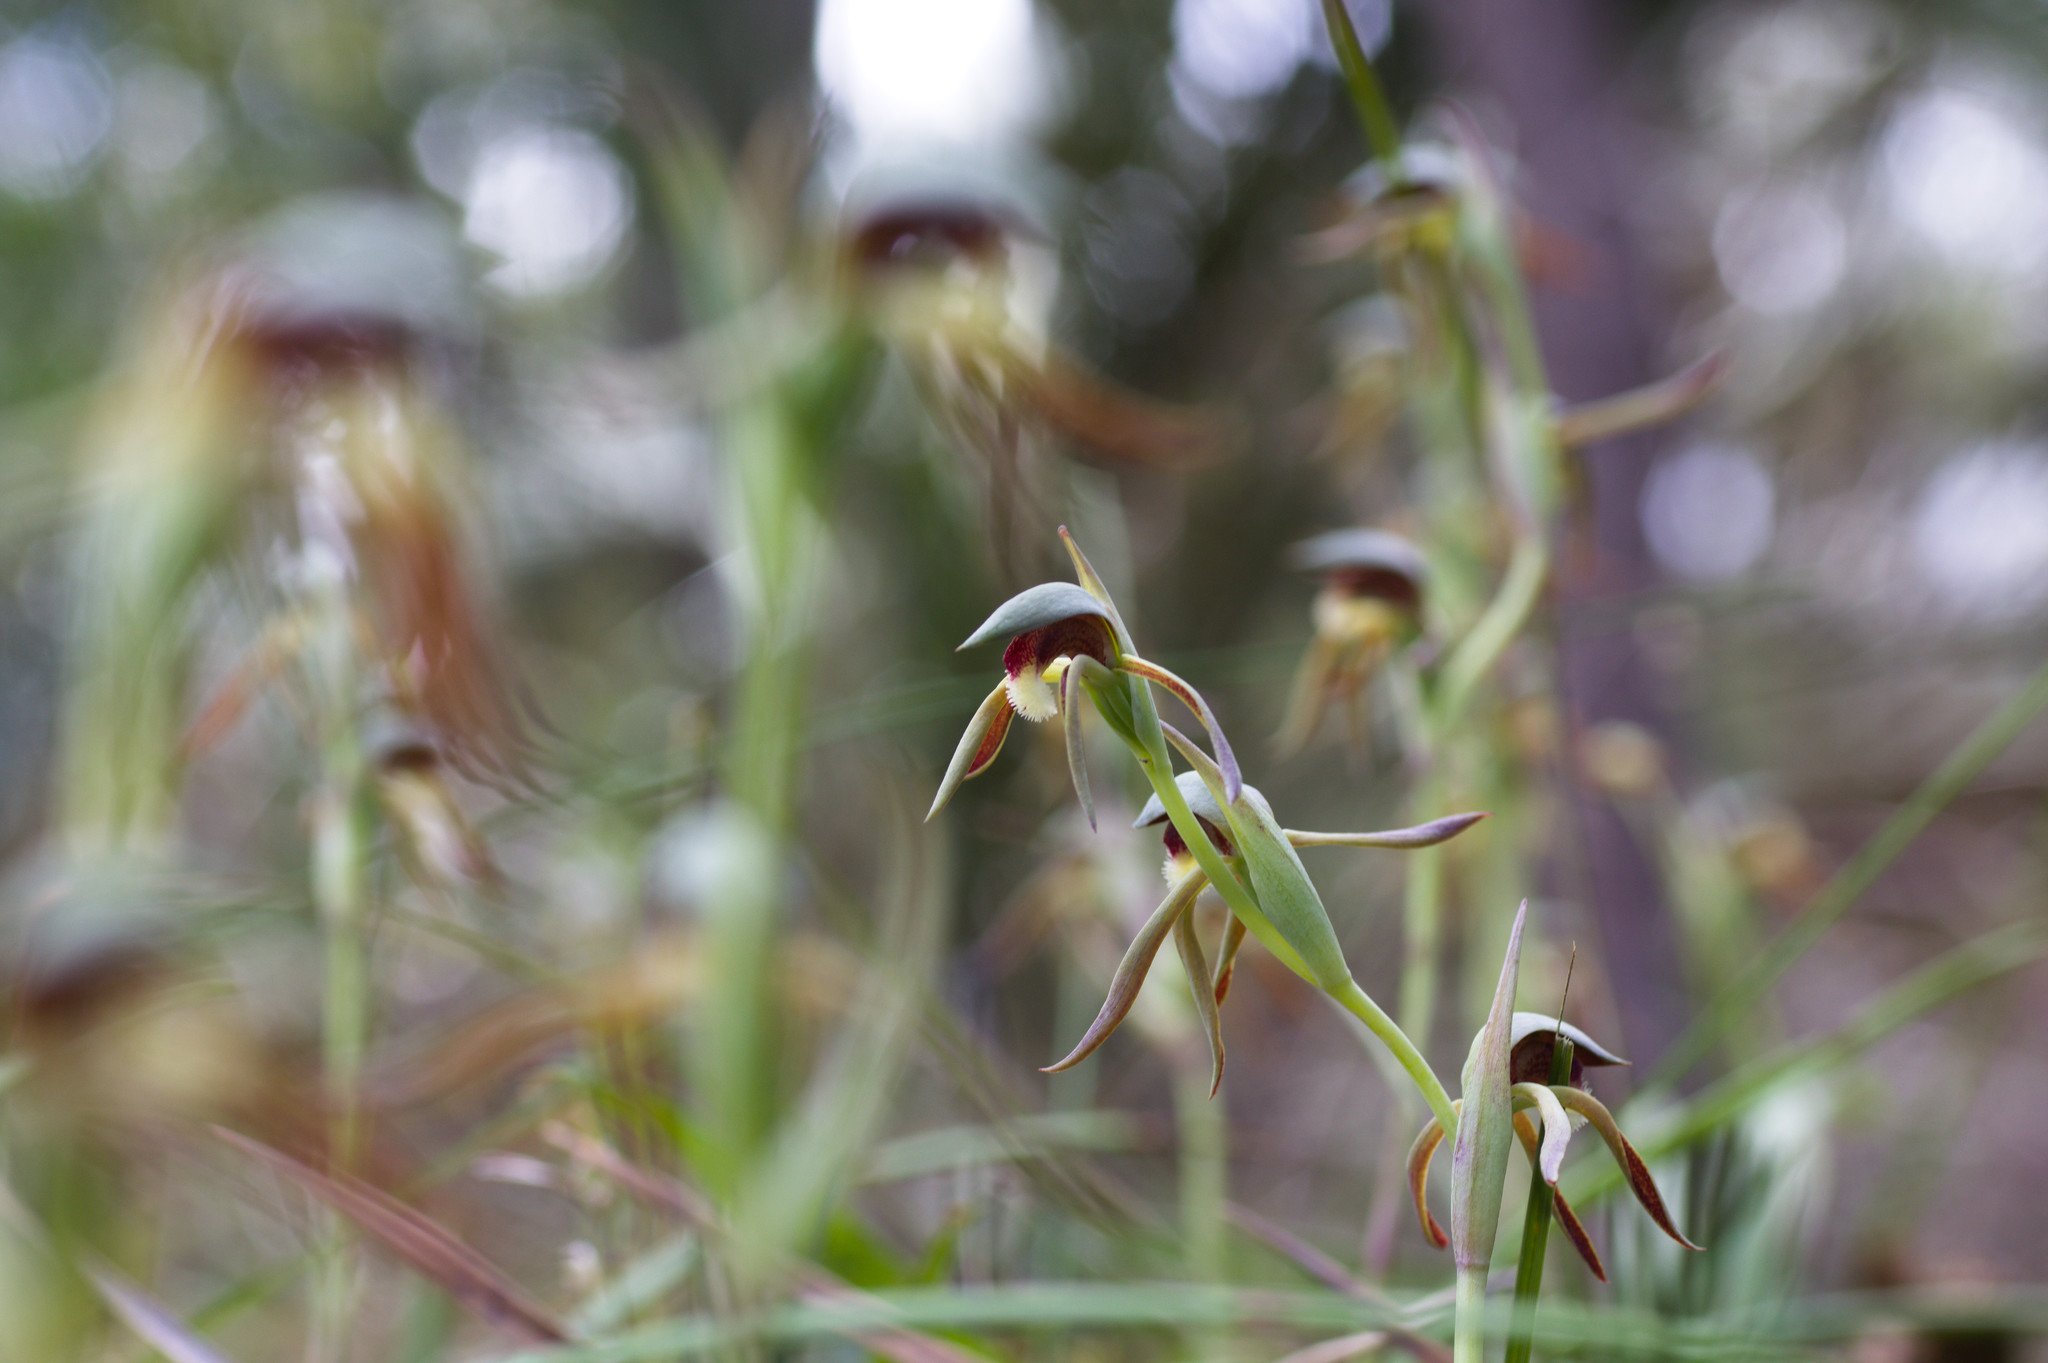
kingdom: Plantae
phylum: Tracheophyta
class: Liliopsida
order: Asparagales
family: Orchidaceae
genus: Lyperanthus
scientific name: Lyperanthus serratus
